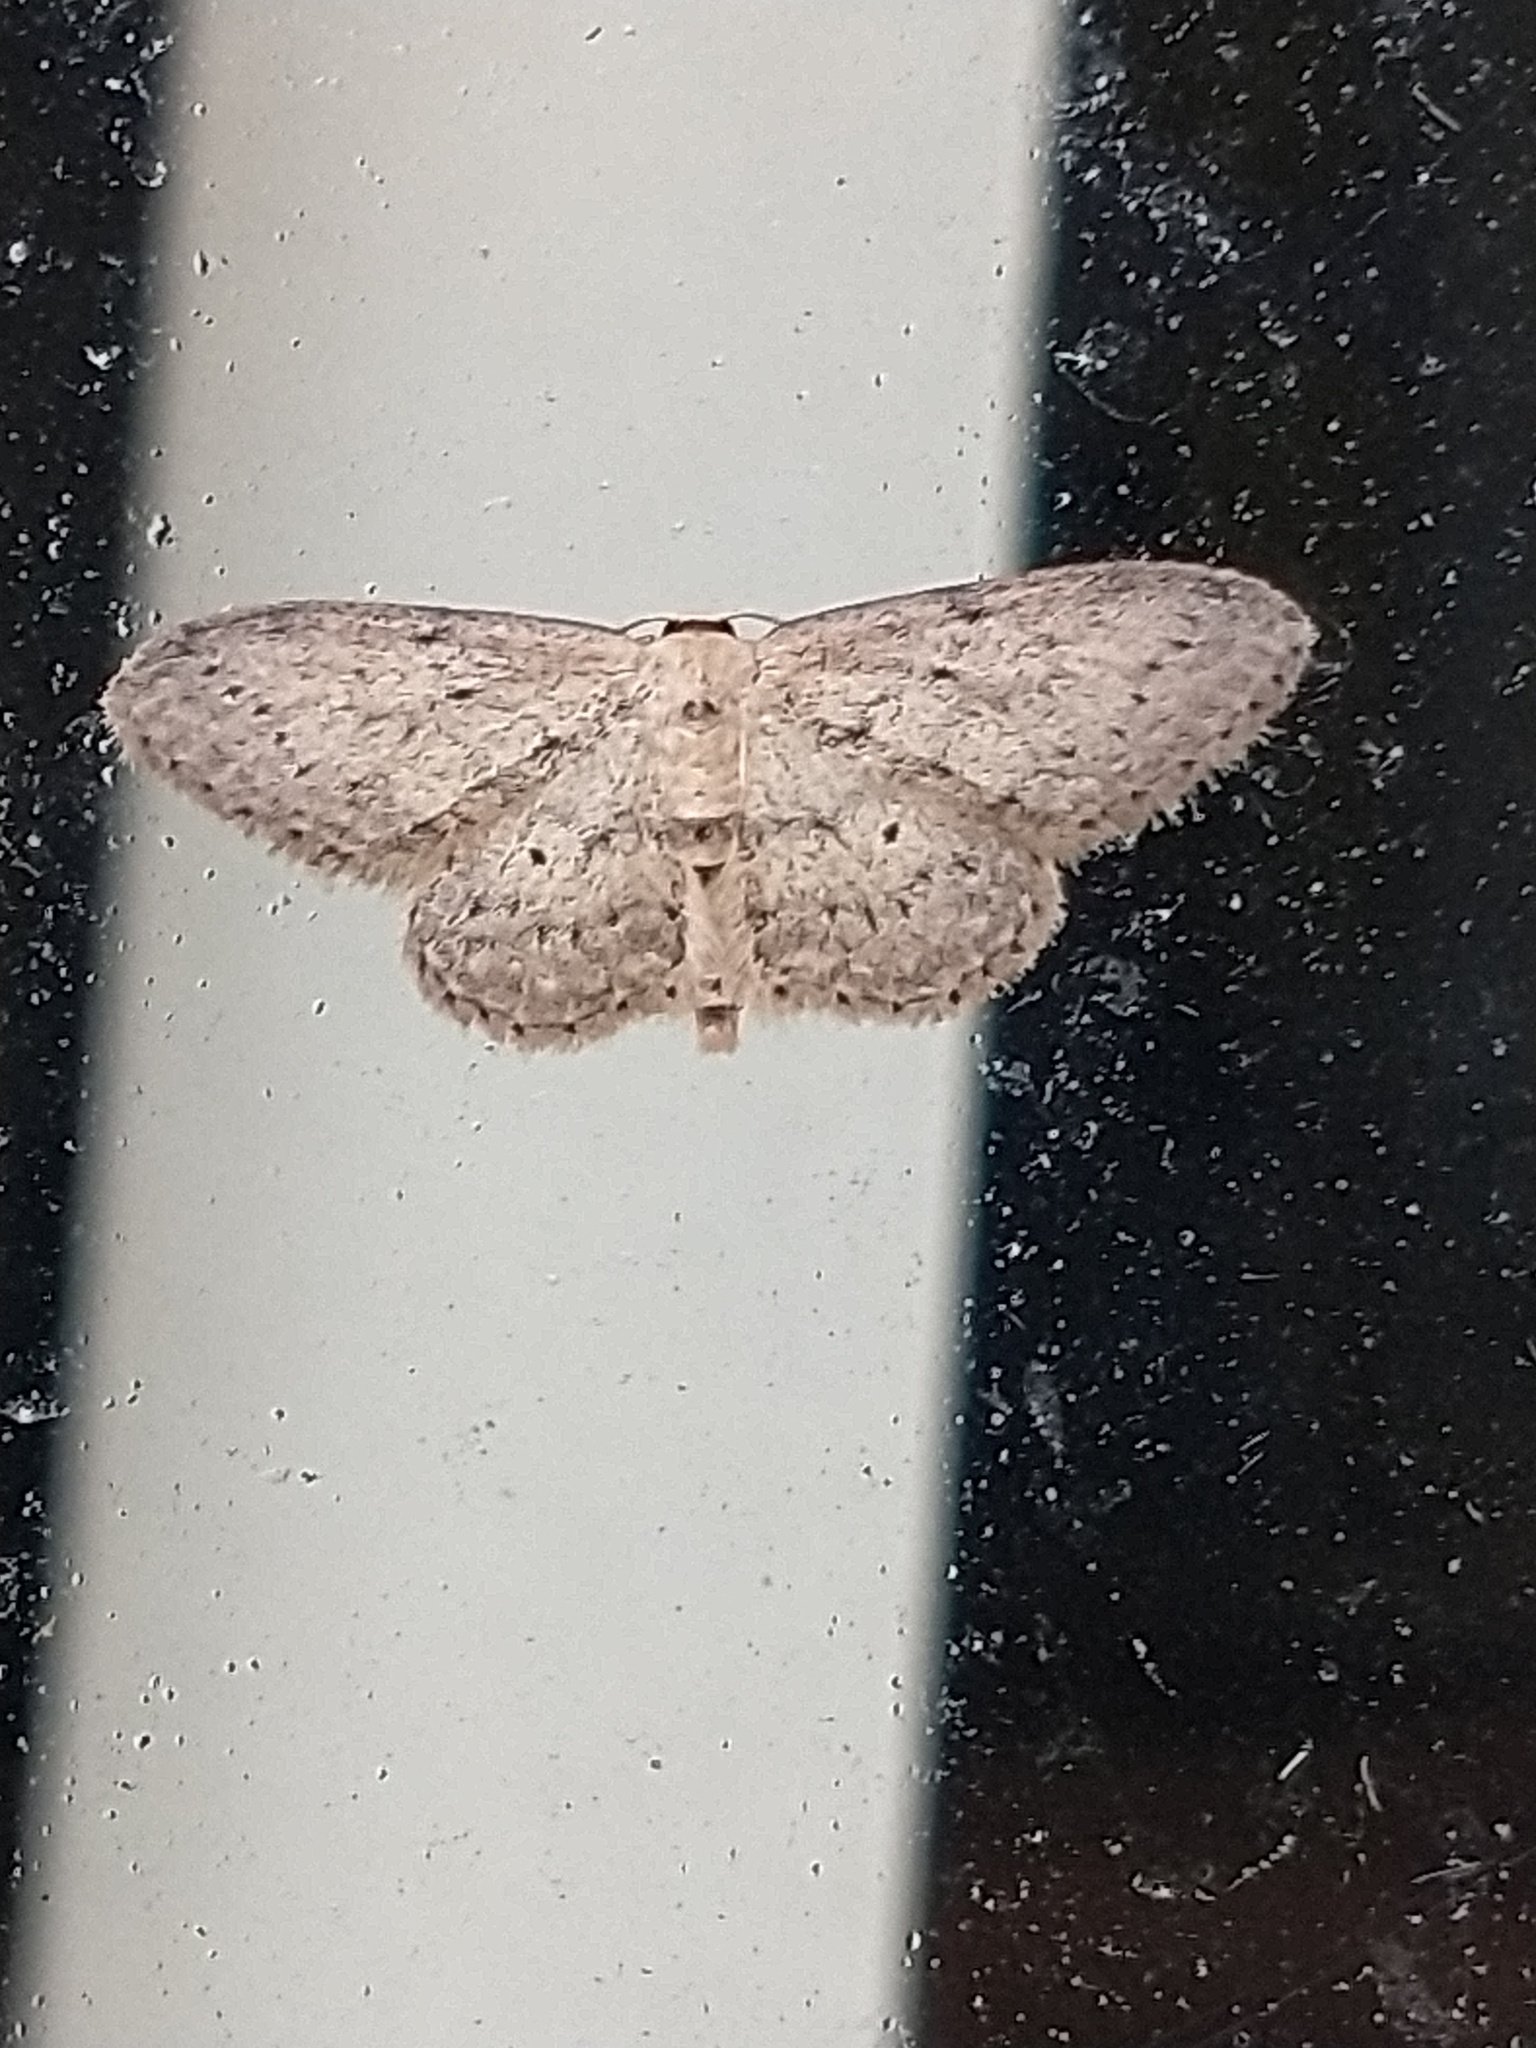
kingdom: Animalia
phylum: Arthropoda
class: Insecta
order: Lepidoptera
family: Geometridae
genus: Idaea
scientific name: Idaea seriata
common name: Small dusty wave
